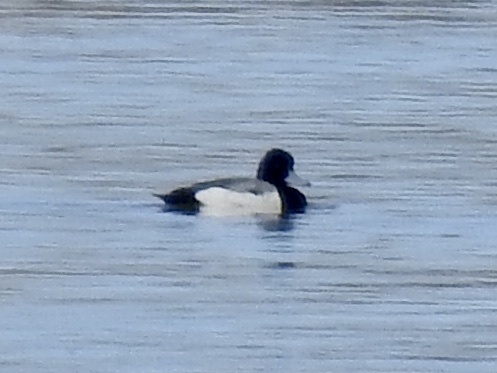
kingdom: Animalia
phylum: Chordata
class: Aves
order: Anseriformes
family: Anatidae
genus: Aythya
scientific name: Aythya affinis
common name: Lesser scaup
